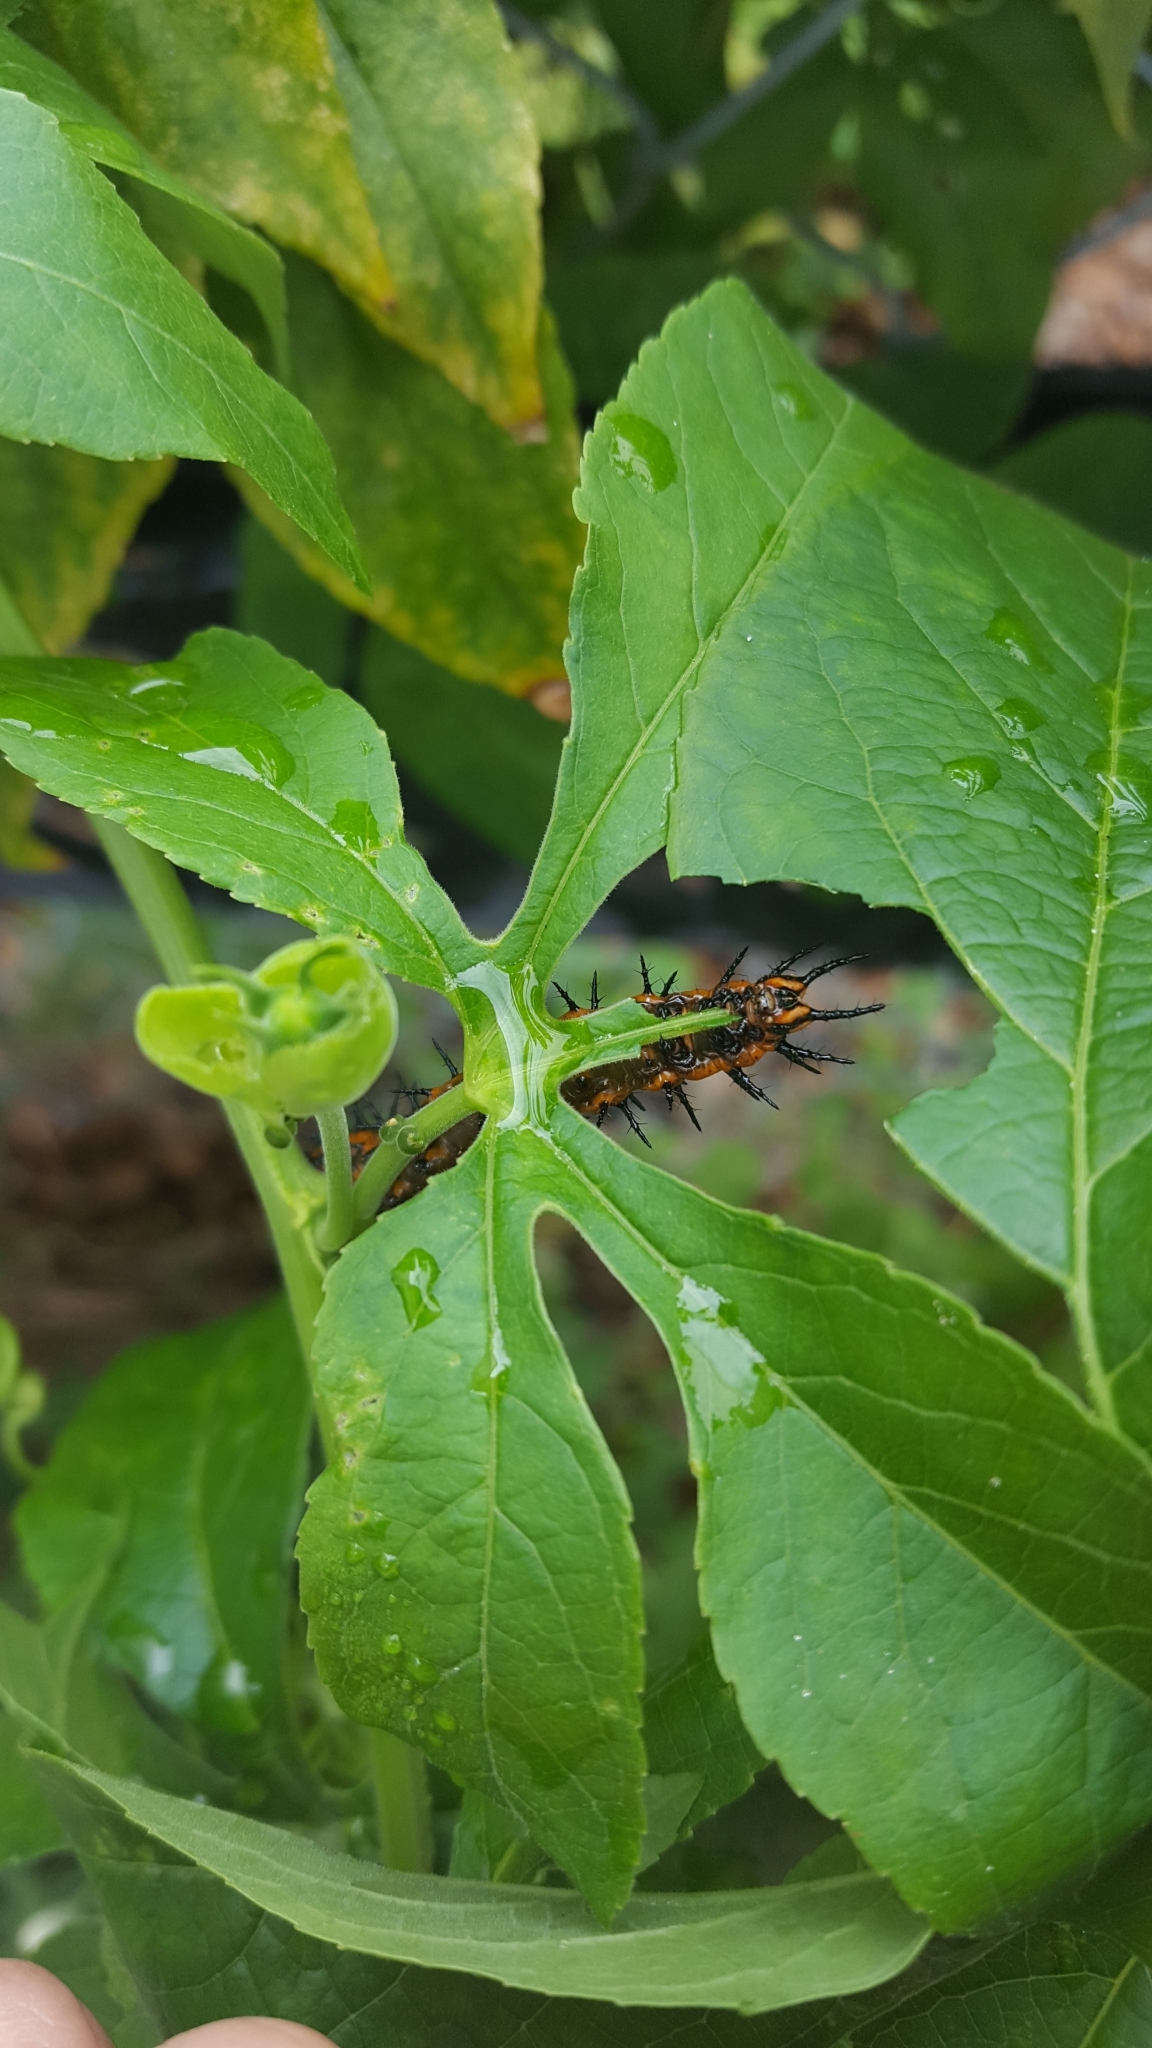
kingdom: Animalia
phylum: Arthropoda
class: Insecta
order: Lepidoptera
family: Nymphalidae
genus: Dione
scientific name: Dione vanillae
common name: Gulf fritillary
